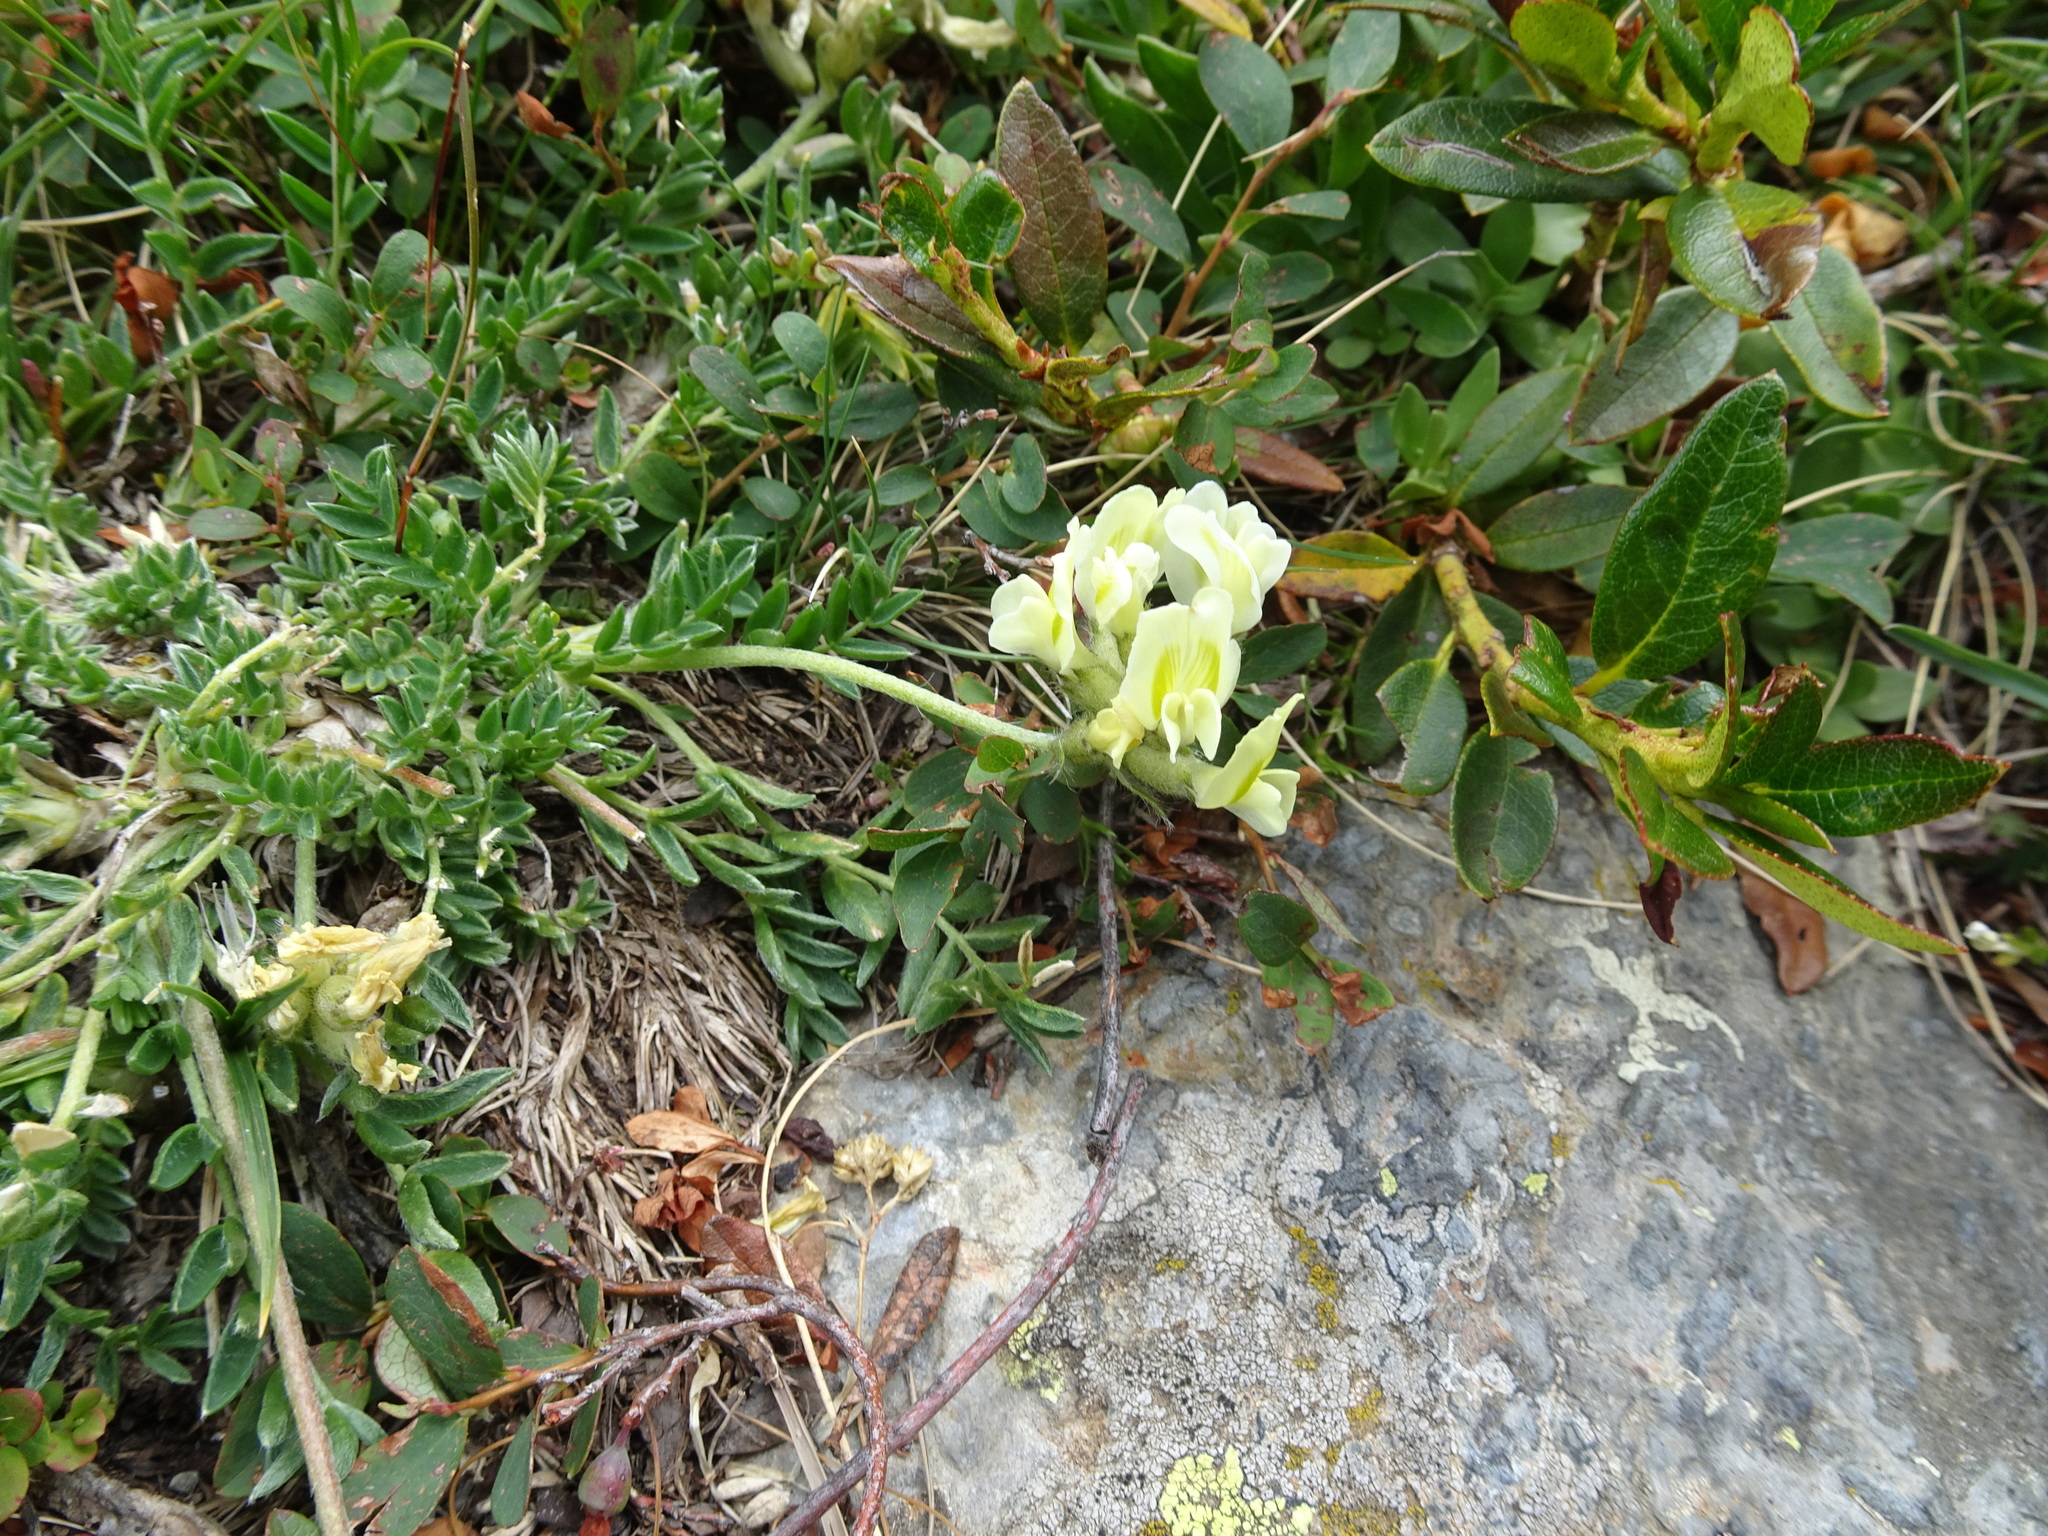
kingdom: Plantae
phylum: Tracheophyta
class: Magnoliopsida
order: Fabales
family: Fabaceae
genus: Oxytropis
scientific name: Oxytropis campestris
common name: Field locoweed
